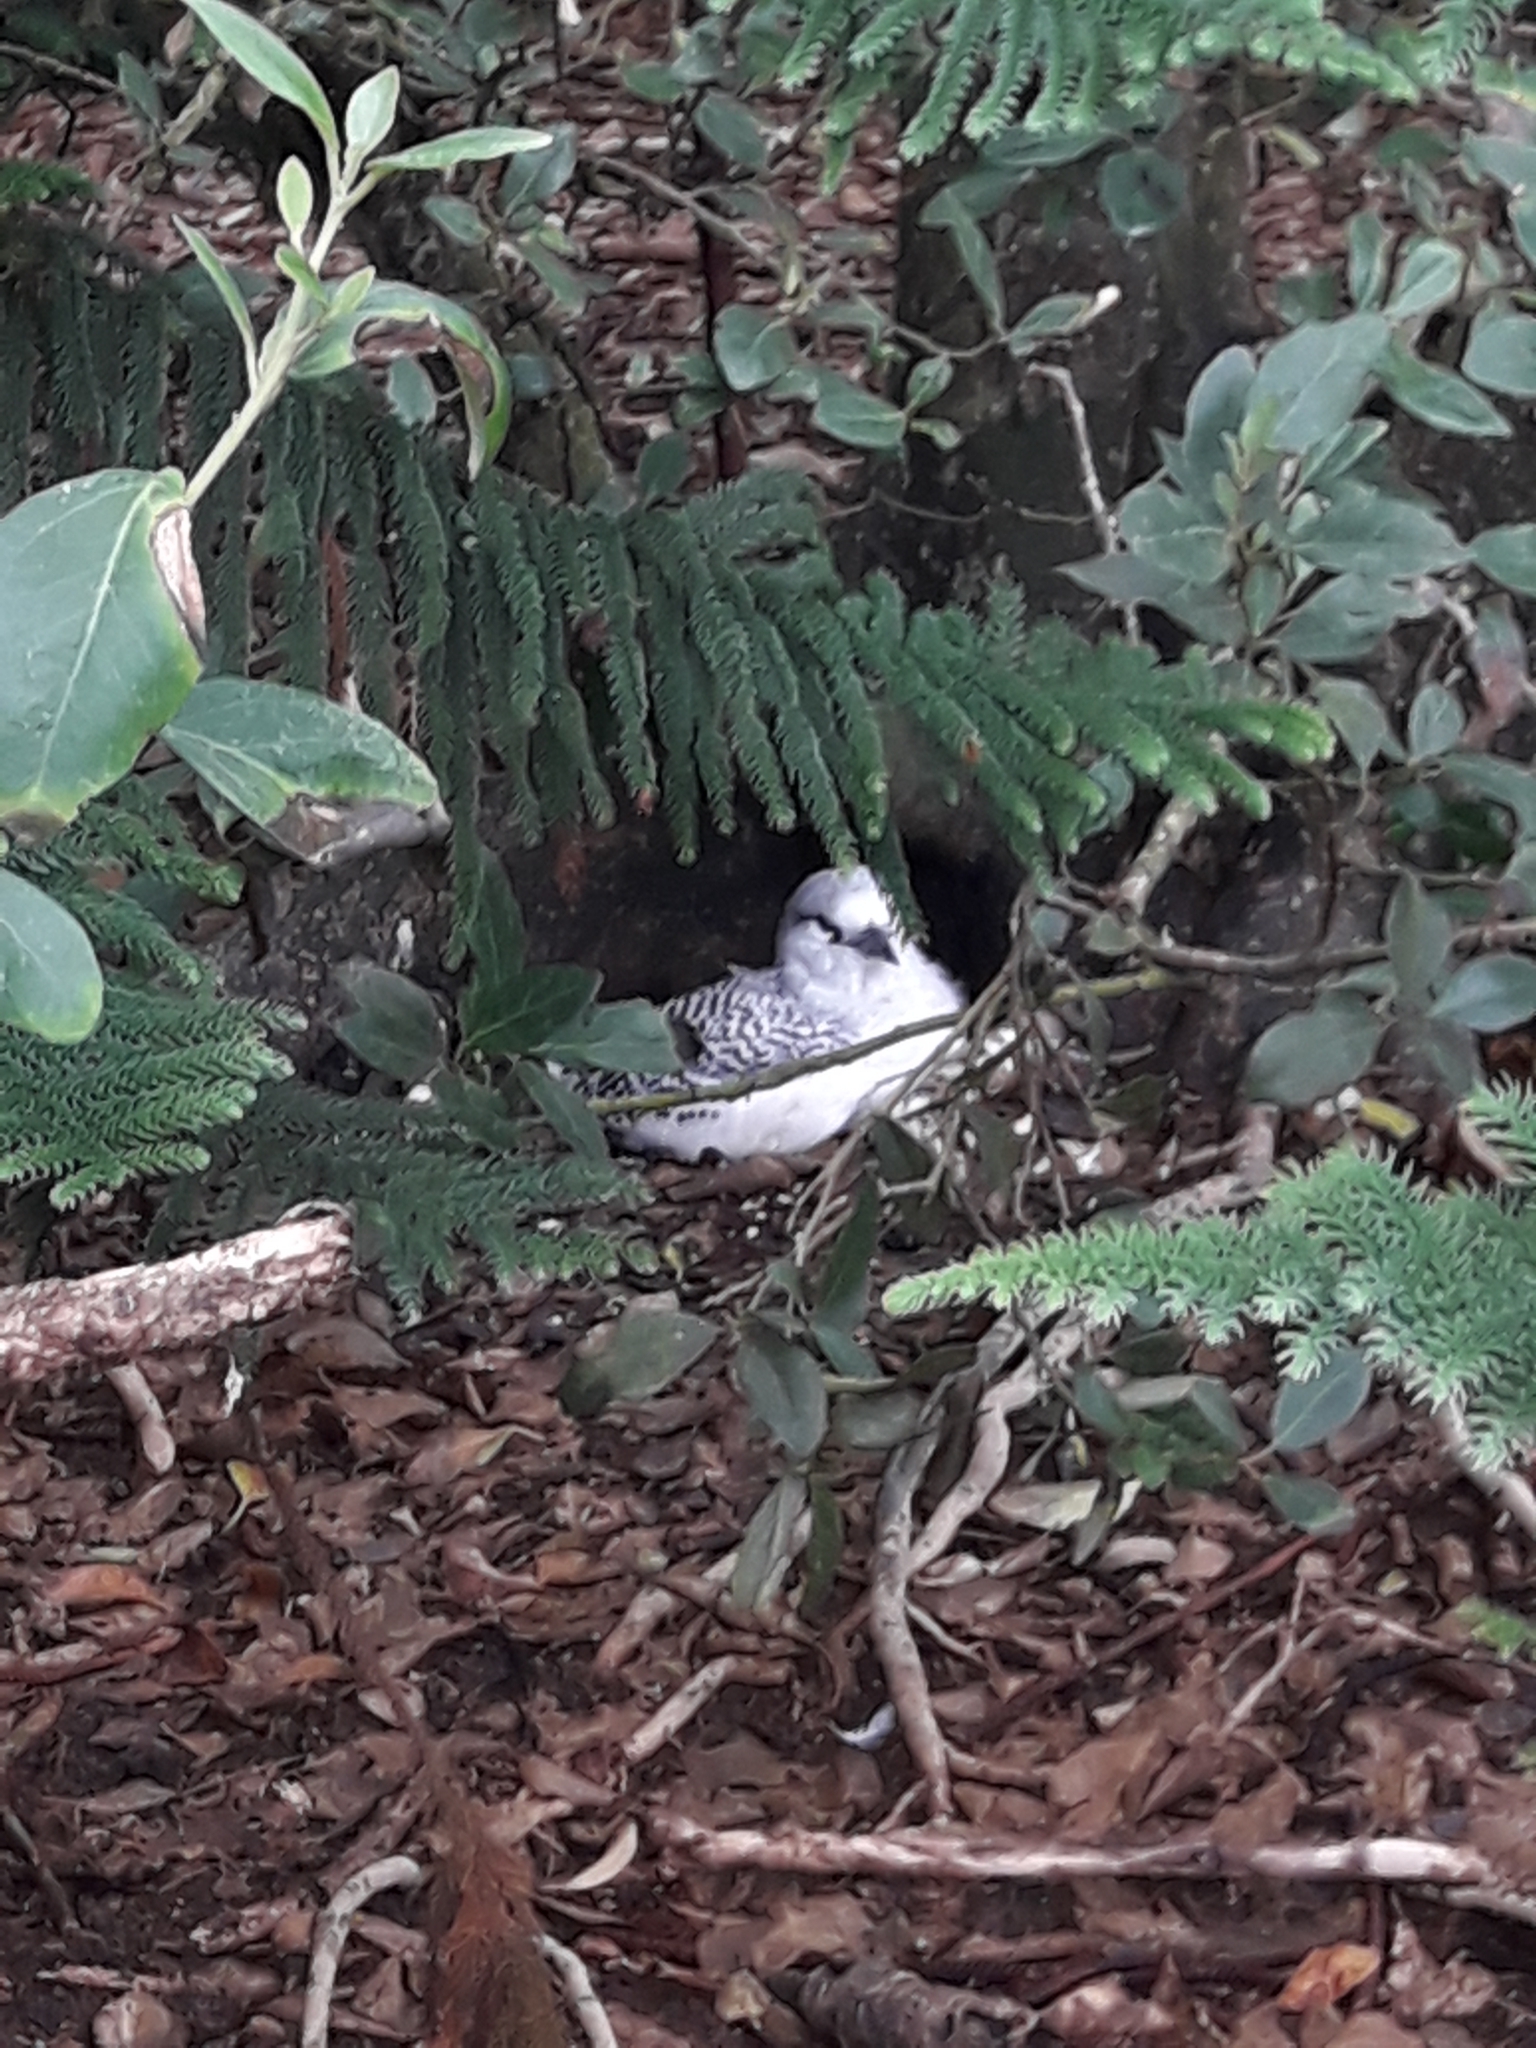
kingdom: Animalia
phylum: Chordata
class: Aves
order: Phaethontiformes
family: Phaethontidae
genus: Phaethon
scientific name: Phaethon rubricauda
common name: Red-tailed tropicbird
